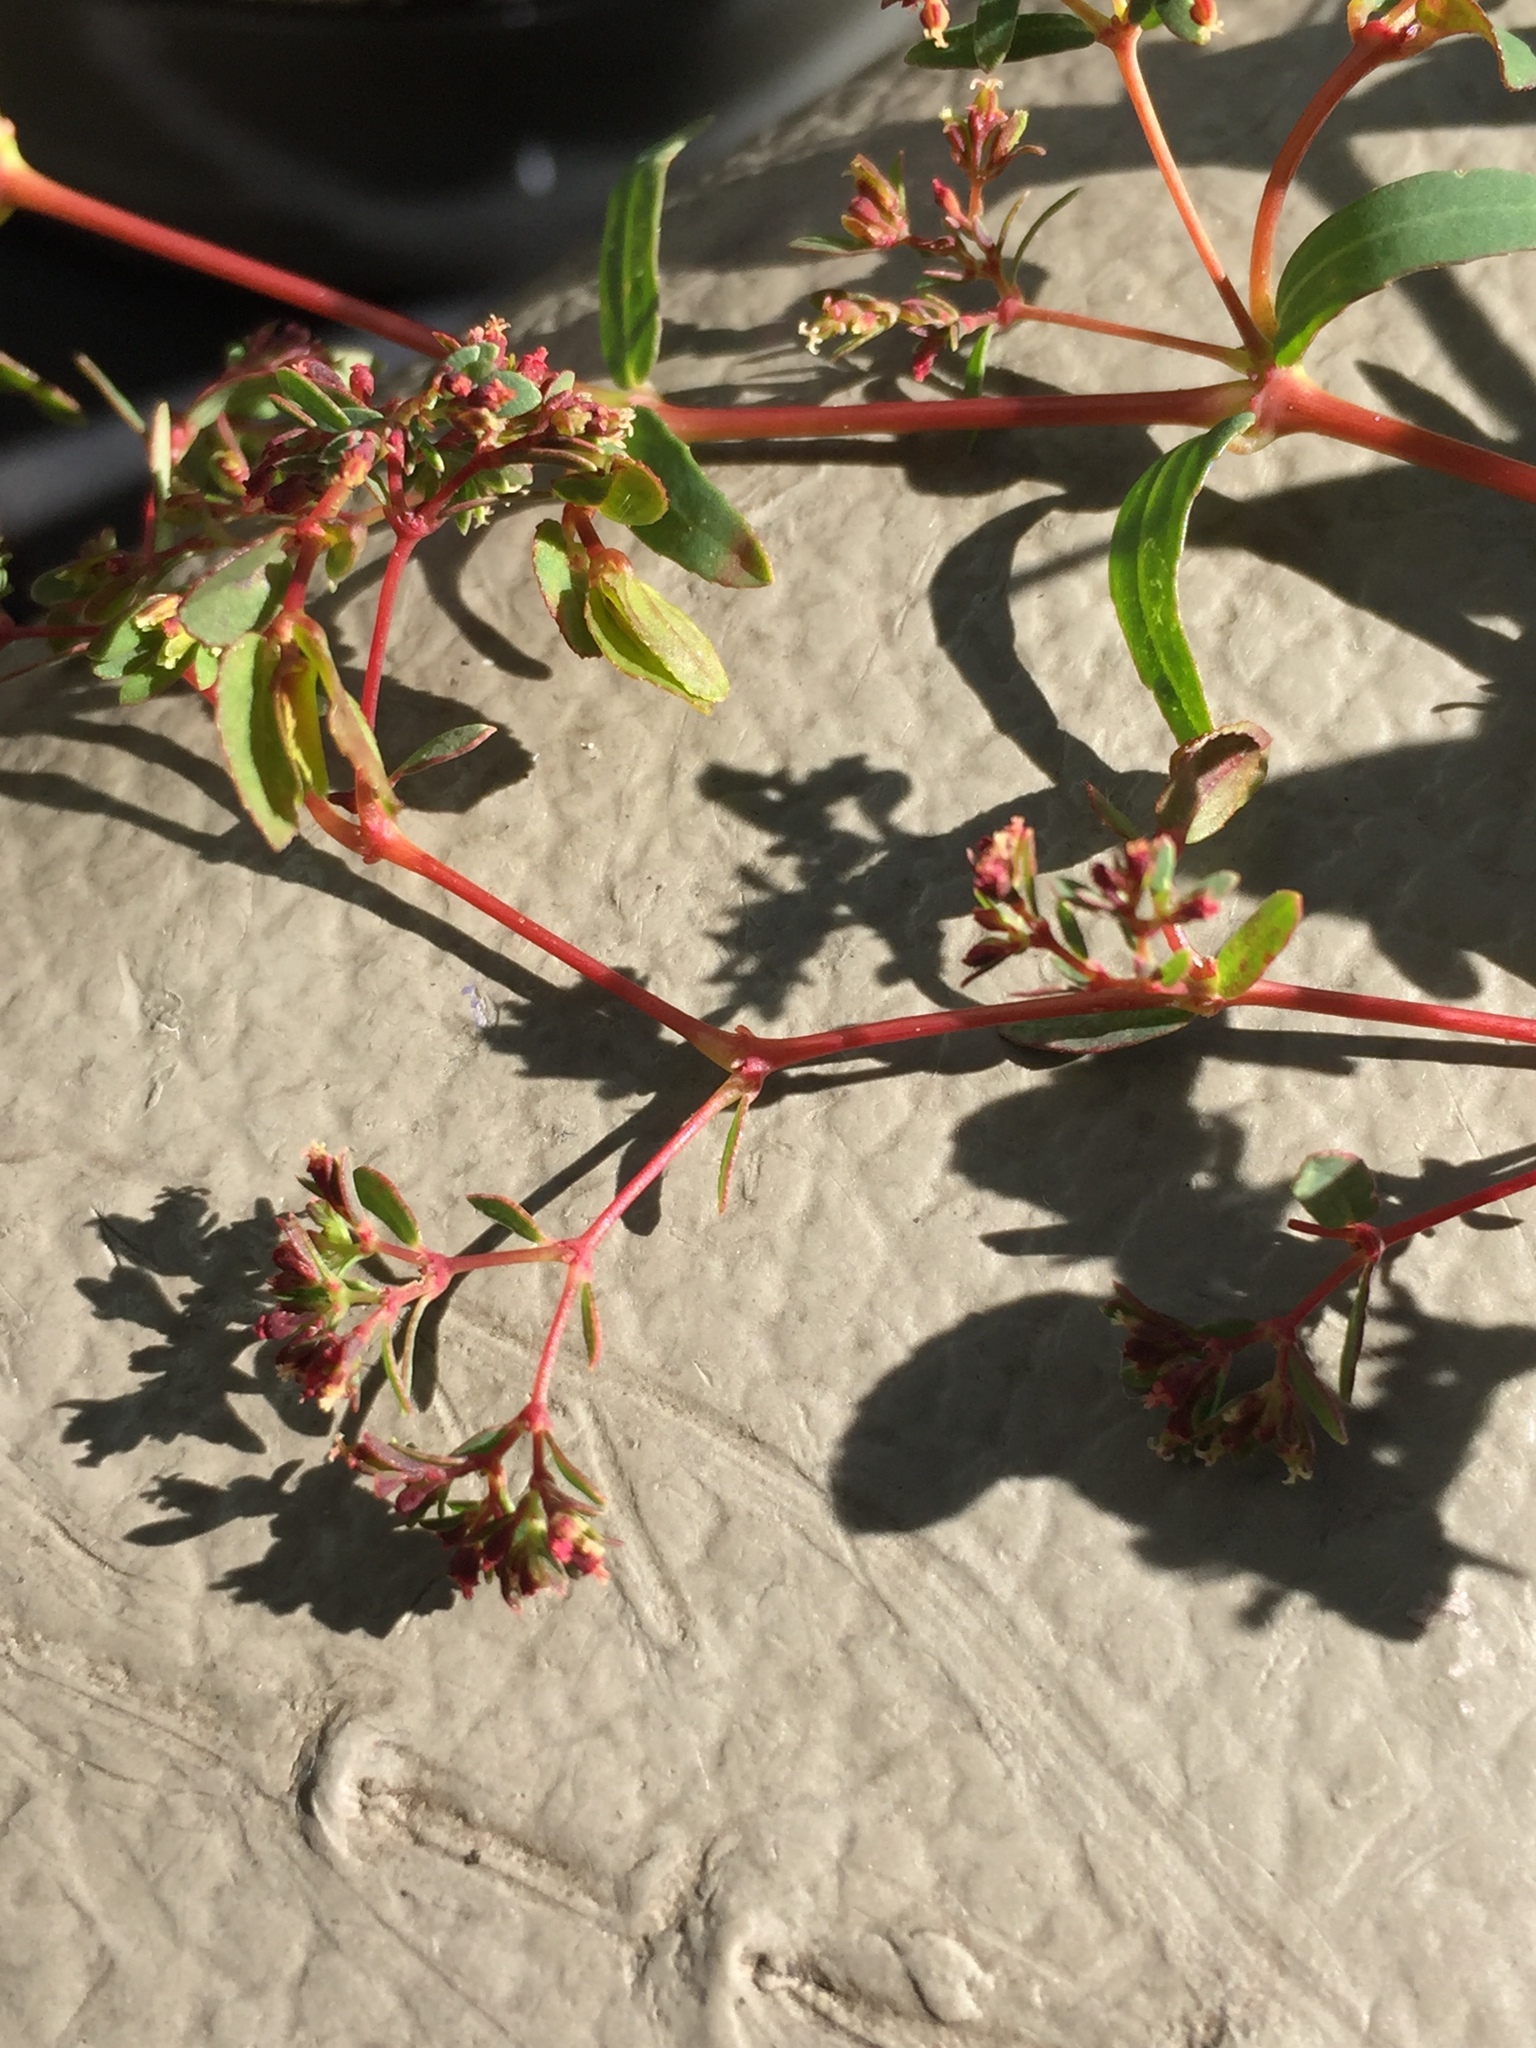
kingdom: Plantae
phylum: Tracheophyta
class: Magnoliopsida
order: Malpighiales
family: Euphorbiaceae
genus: Euphorbia
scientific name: Euphorbia hyssopifolia
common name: Hyssopleaf sandmat
